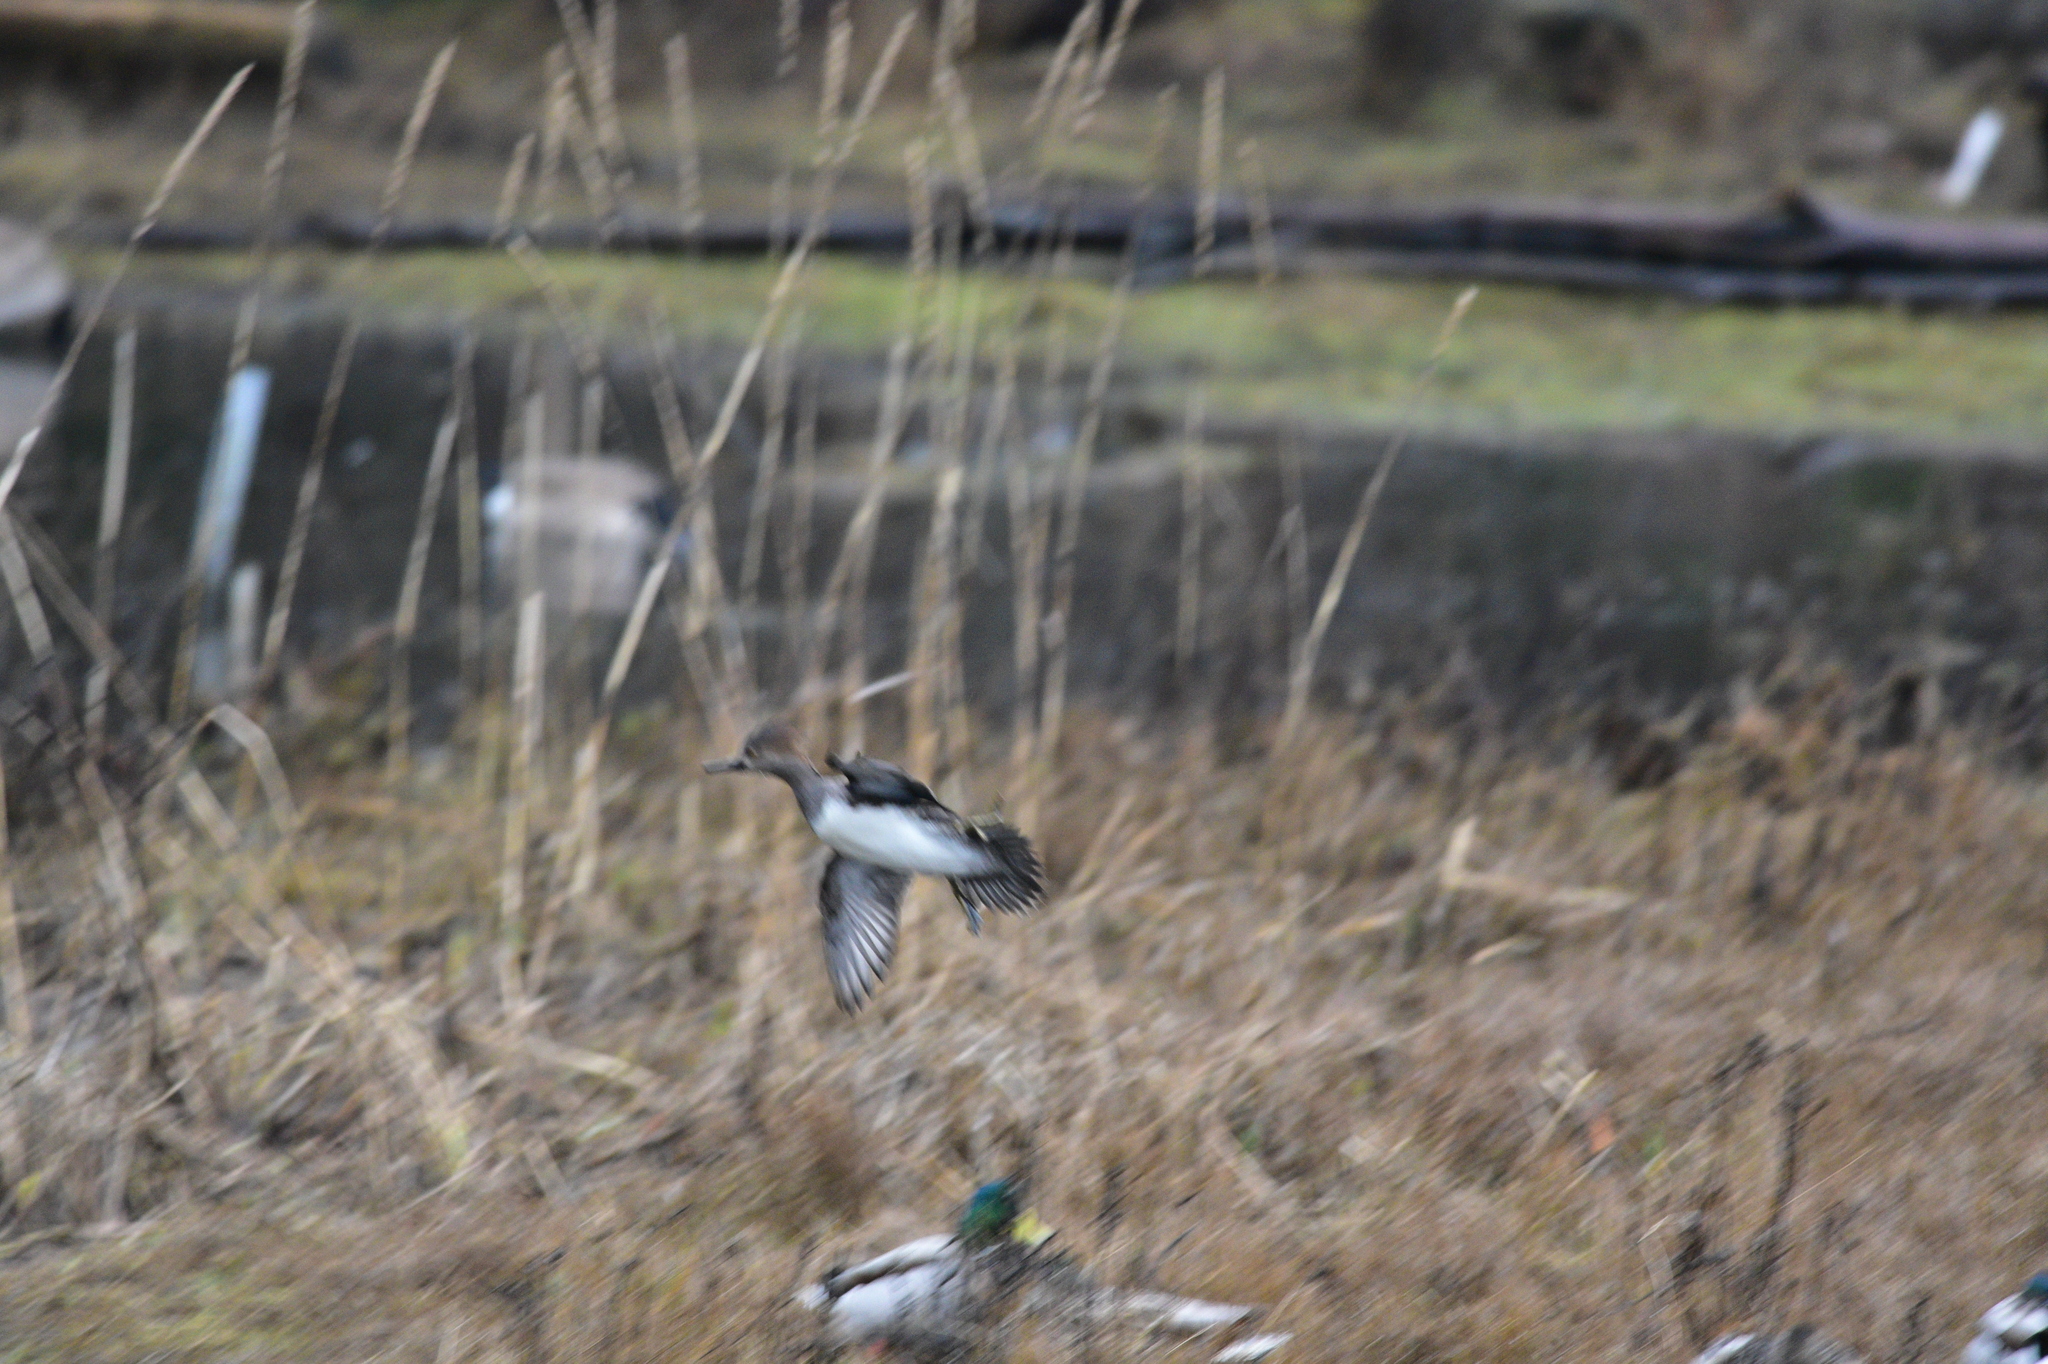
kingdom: Animalia
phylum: Chordata
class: Aves
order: Anseriformes
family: Anatidae
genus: Lophodytes
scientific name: Lophodytes cucullatus
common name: Hooded merganser
